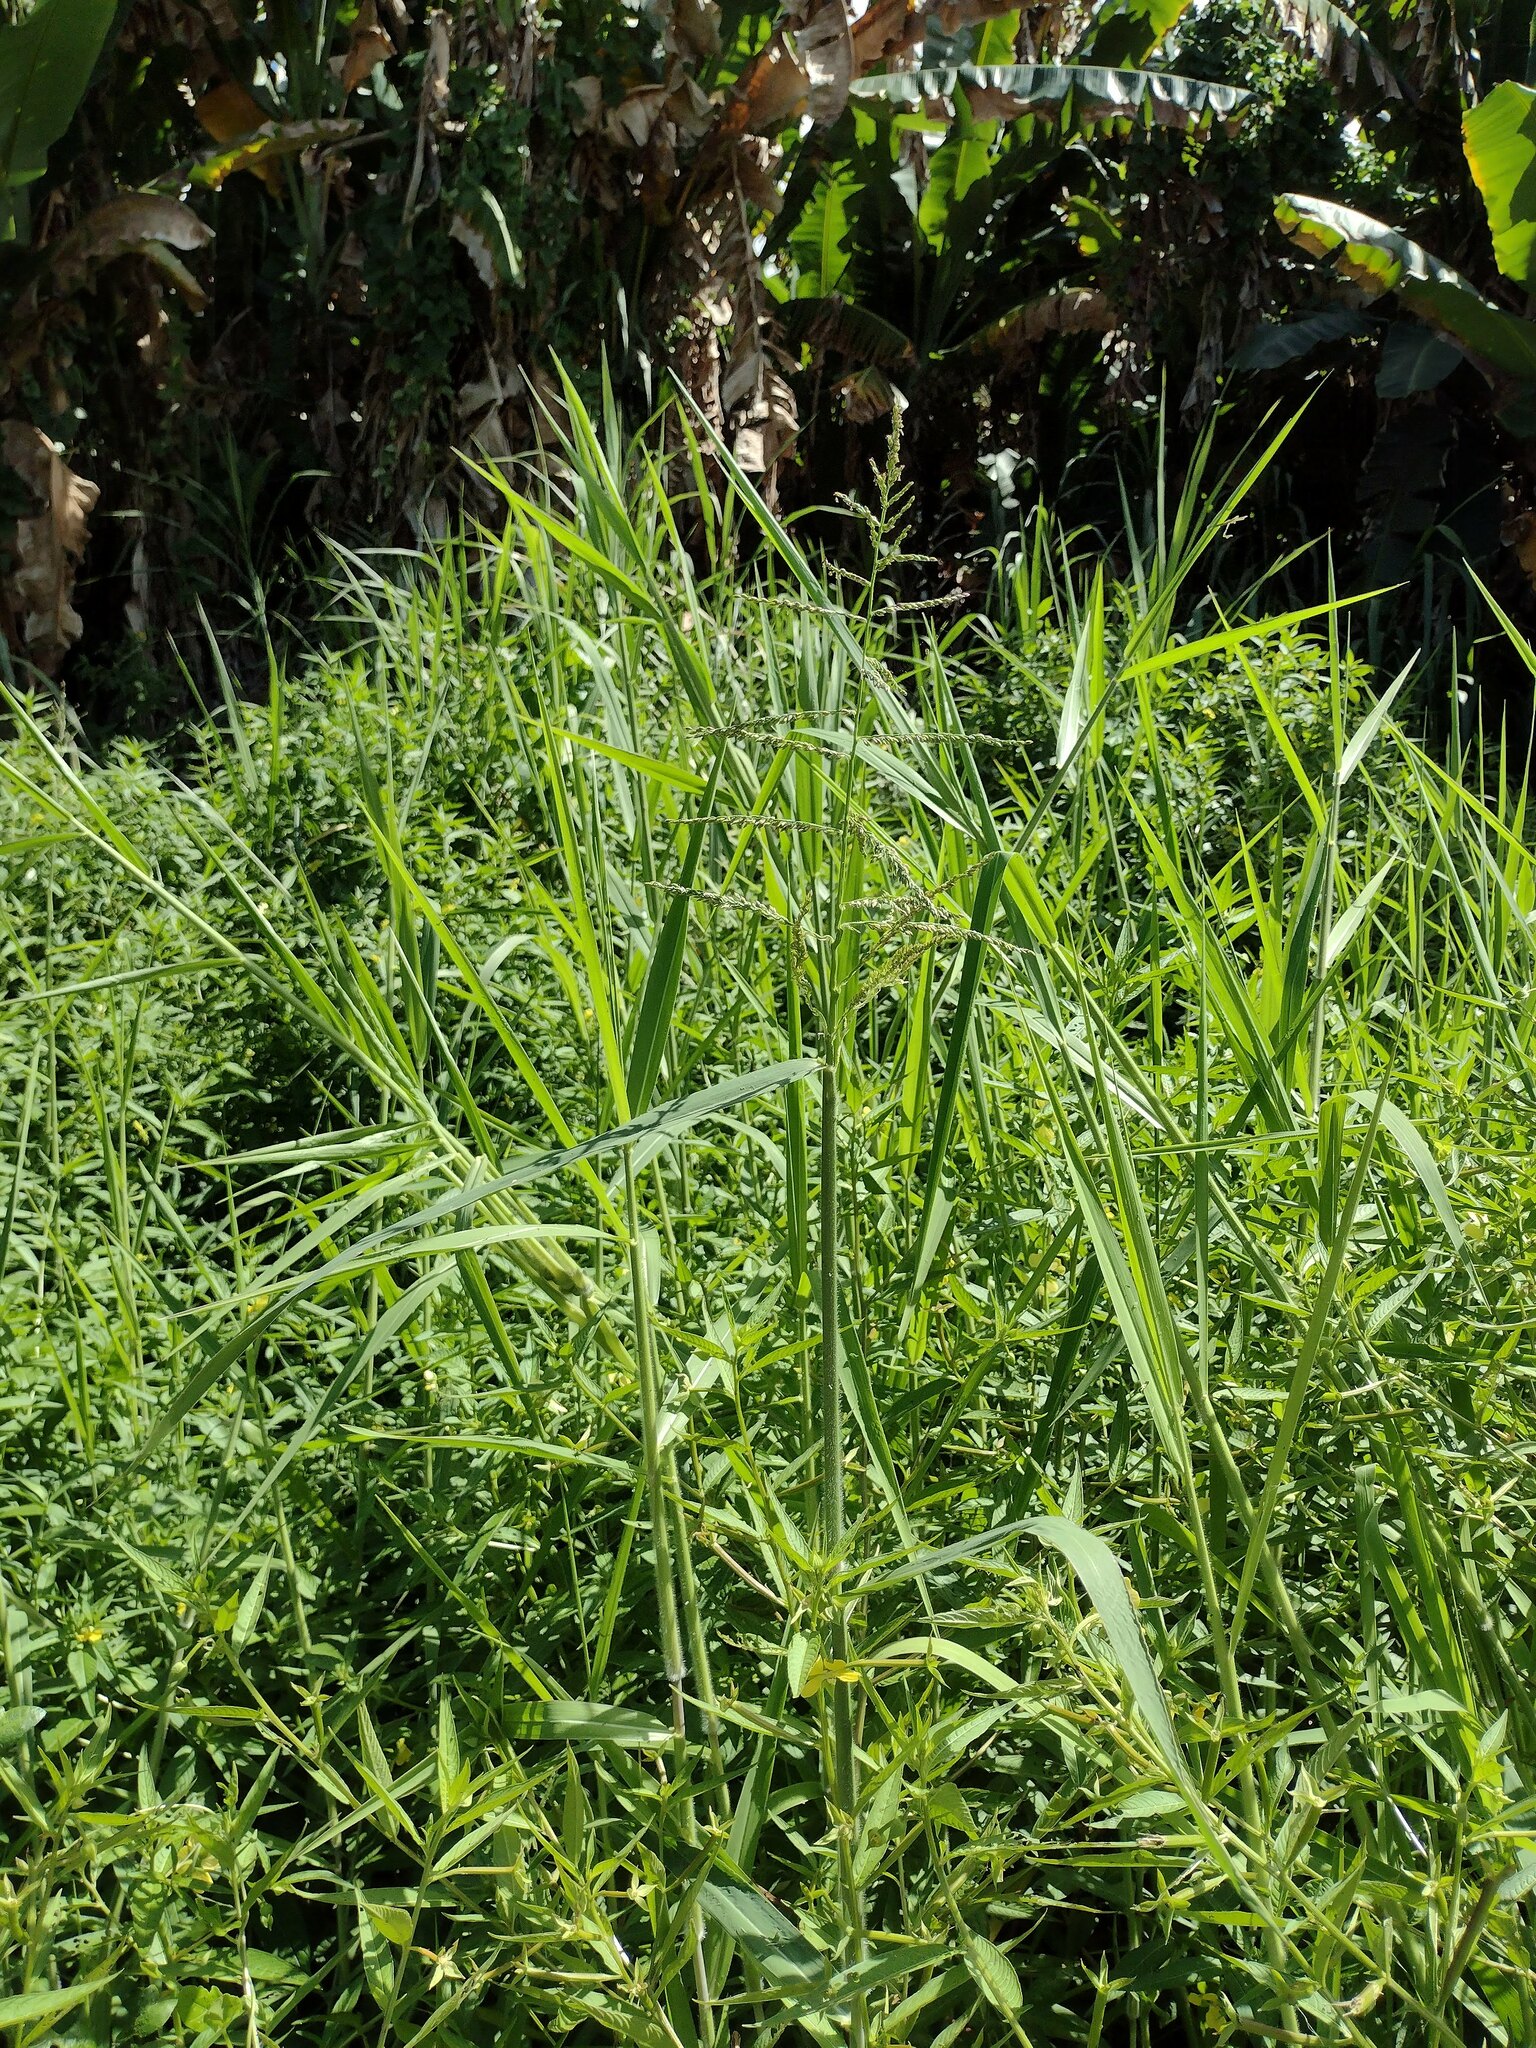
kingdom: Plantae
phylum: Tracheophyta
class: Liliopsida
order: Poales
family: Poaceae
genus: Urochloa
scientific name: Urochloa mutica
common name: Para grass
